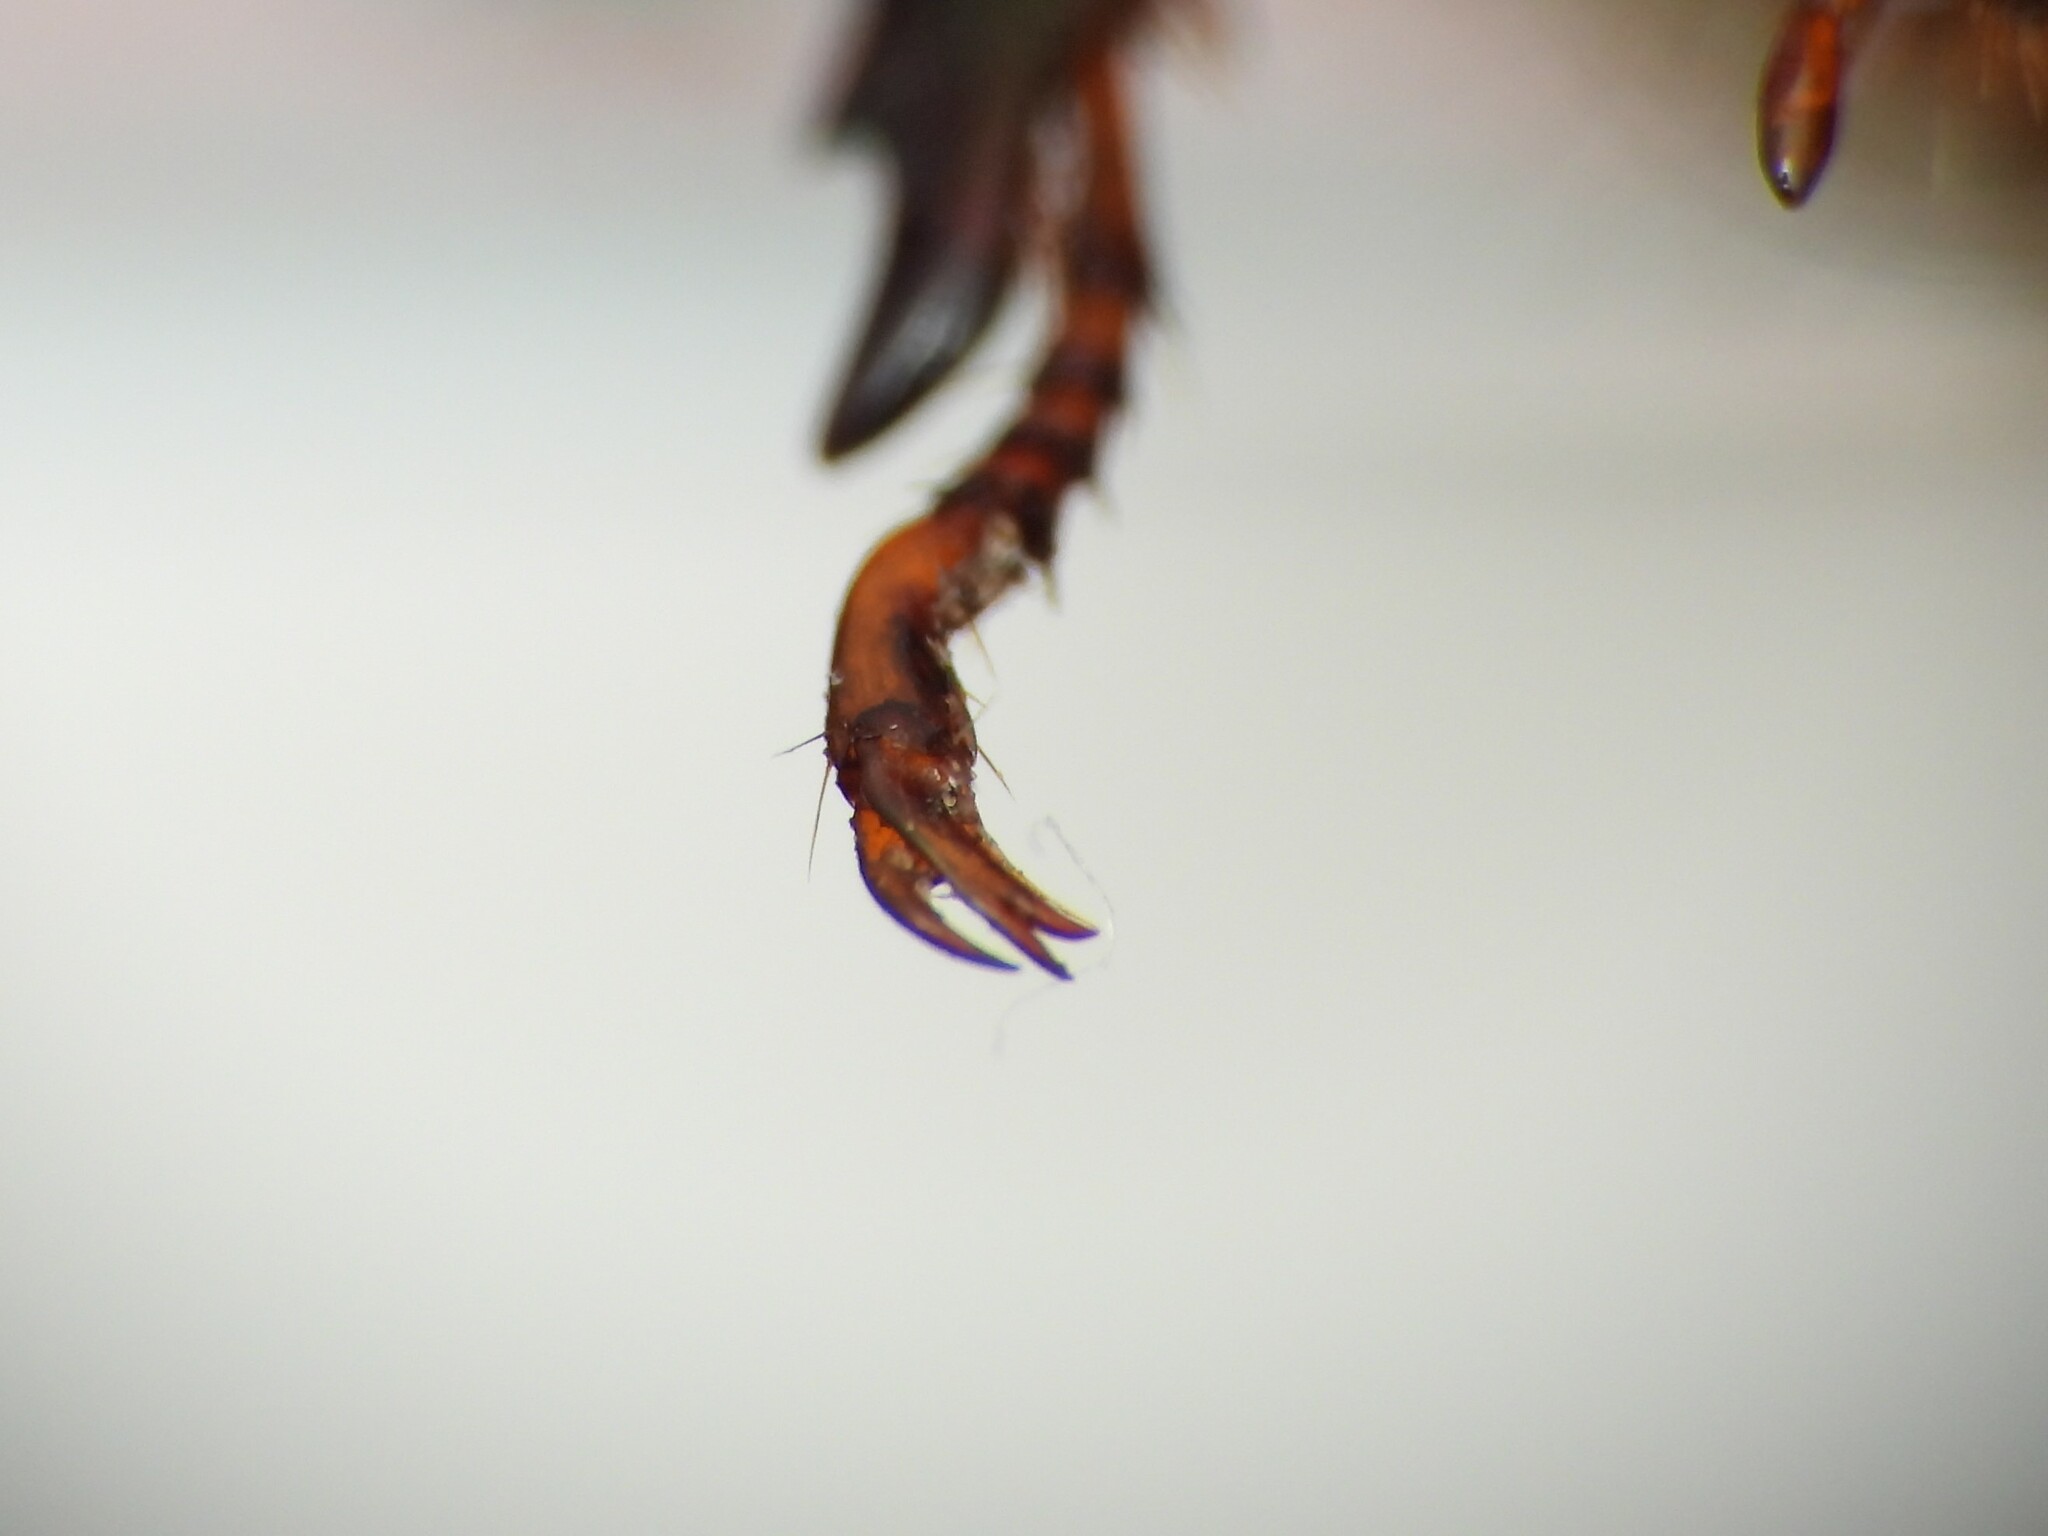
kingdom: Animalia
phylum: Arthropoda
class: Insecta
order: Coleoptera
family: Scarabaeidae
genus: Anomala
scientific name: Anomala vitis
